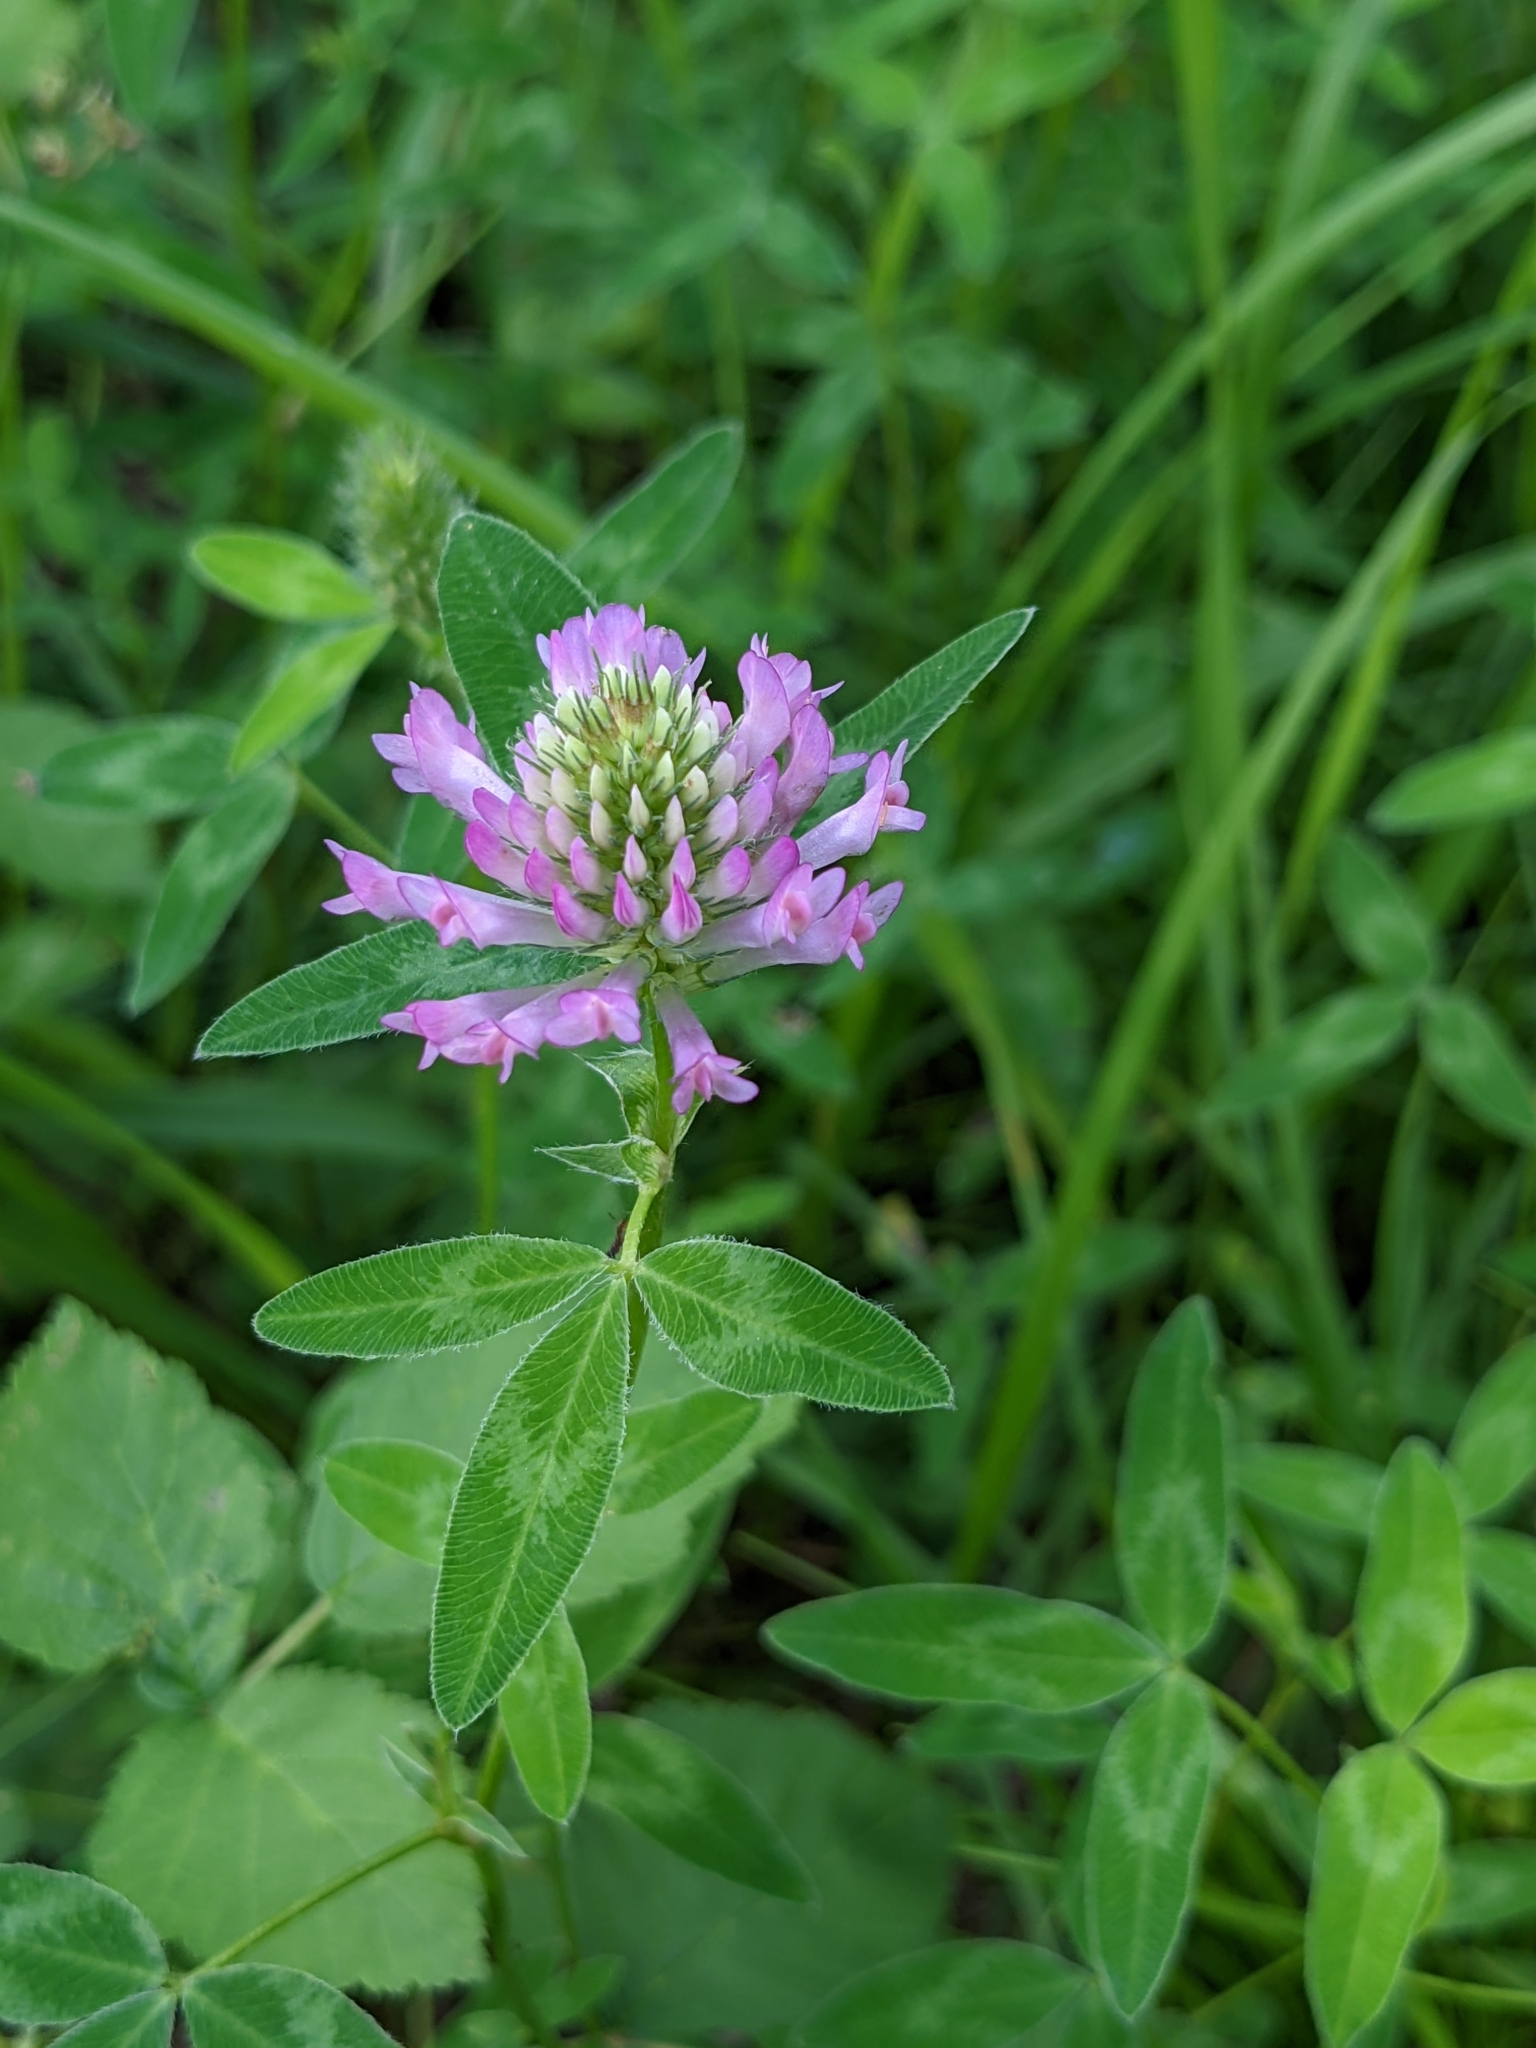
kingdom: Plantae
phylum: Tracheophyta
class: Magnoliopsida
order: Fabales
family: Fabaceae
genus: Trifolium
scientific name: Trifolium medium
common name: Zigzag clover
